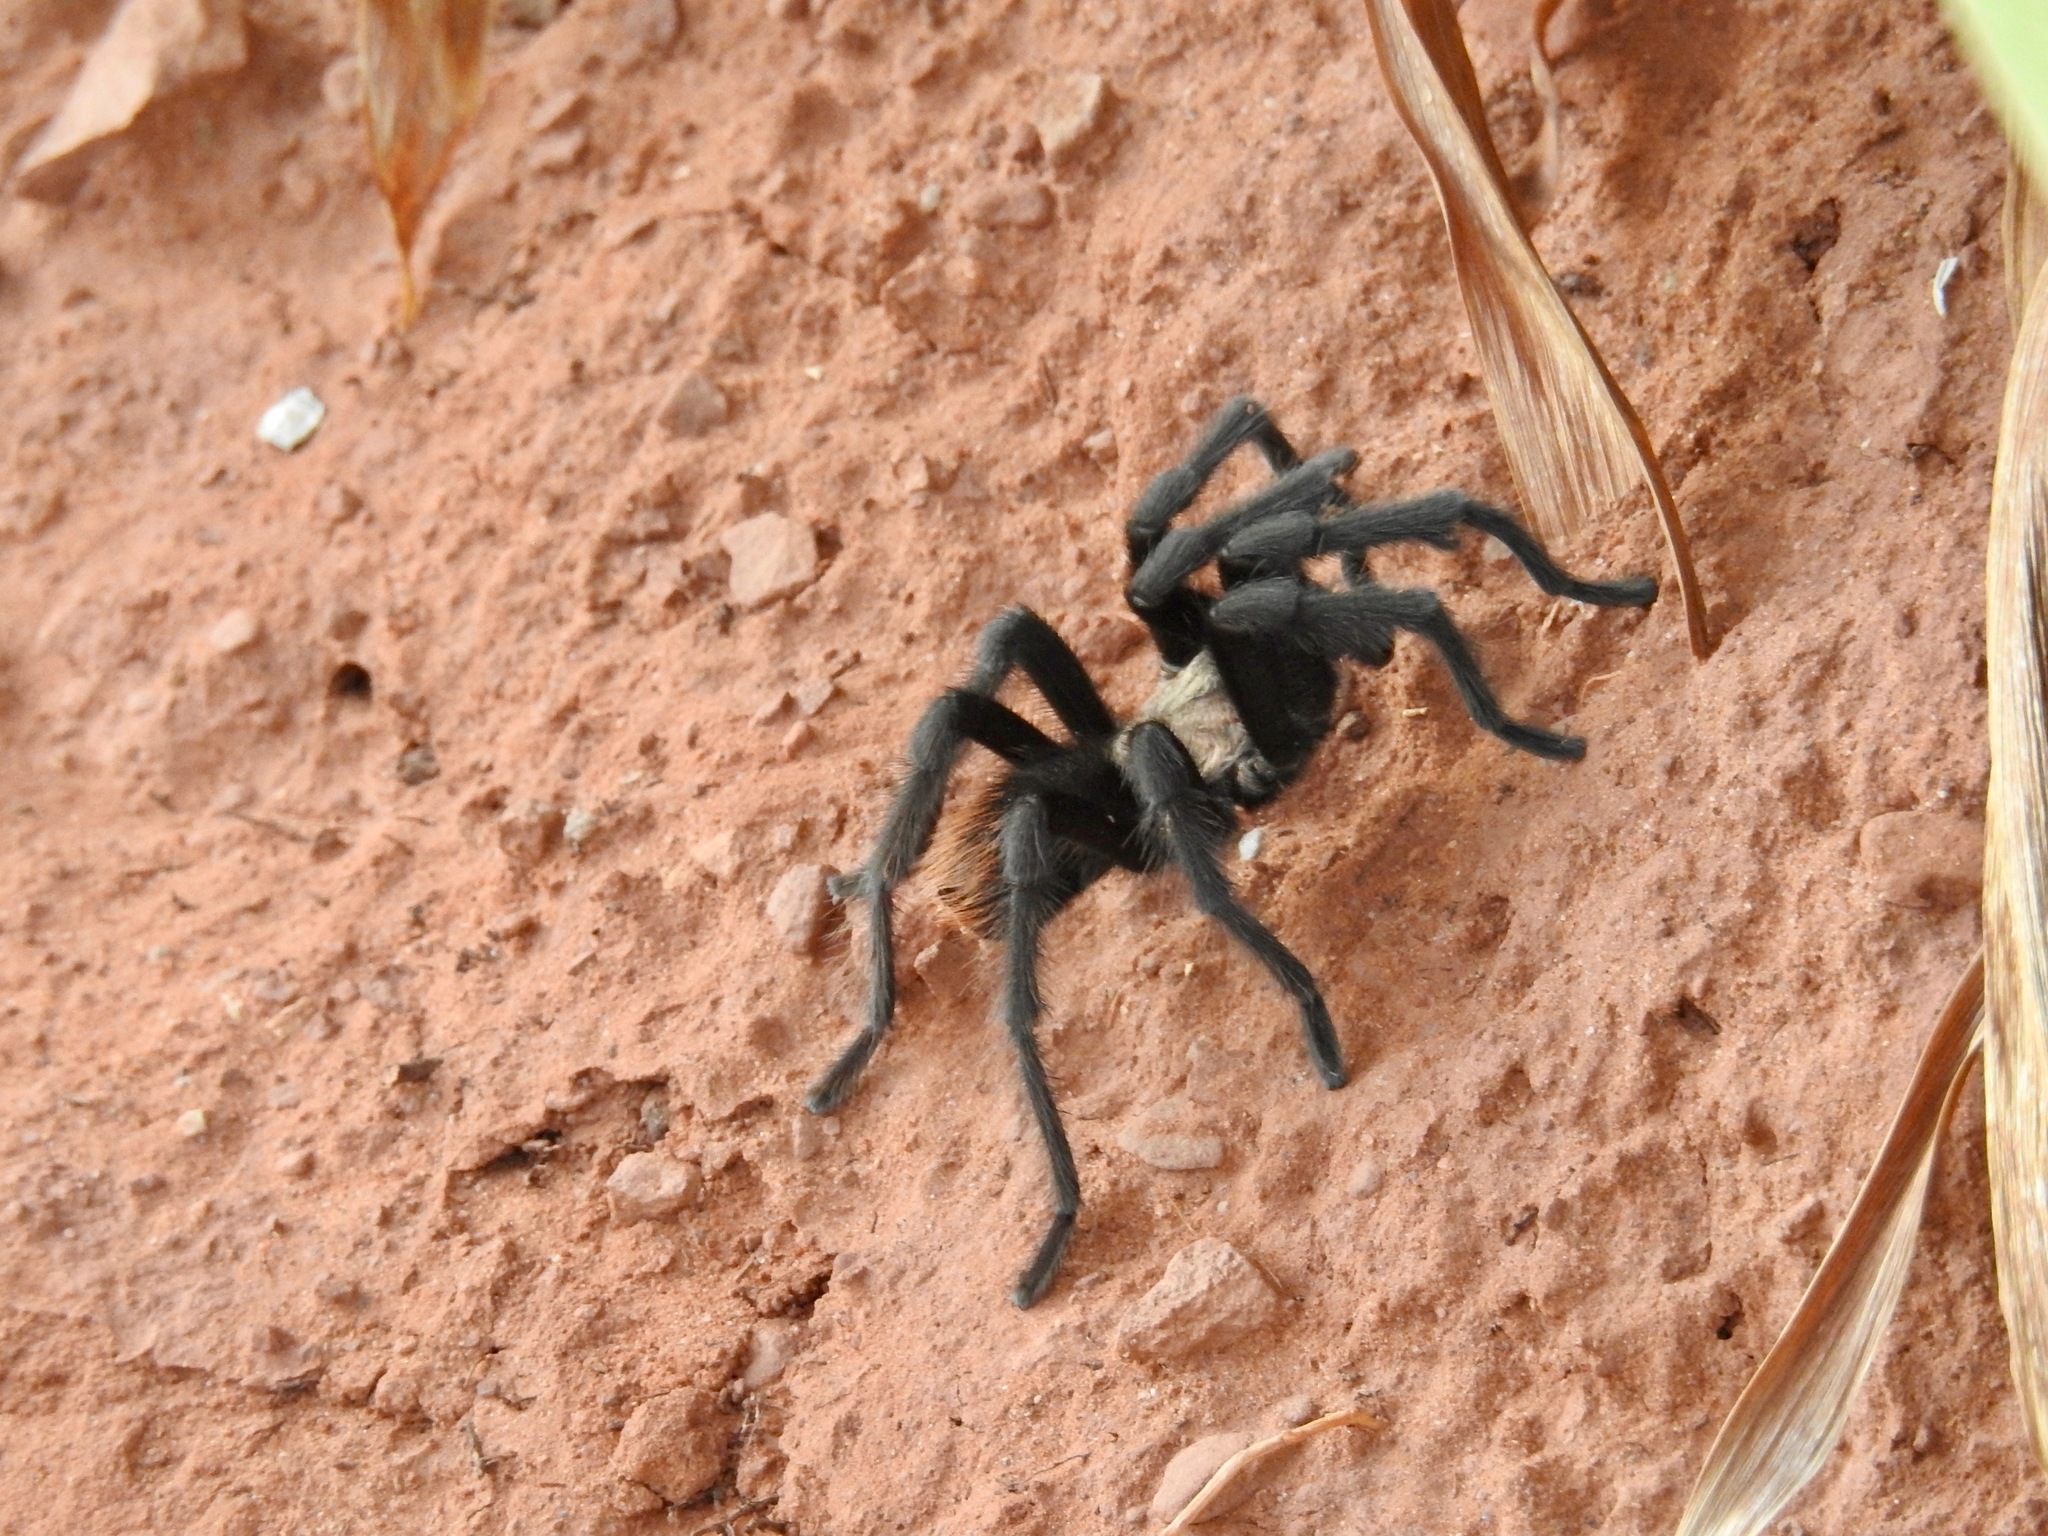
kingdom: Animalia
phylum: Arthropoda
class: Arachnida
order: Araneae
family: Theraphosidae
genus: Aphonopelma
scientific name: Aphonopelma iodius
